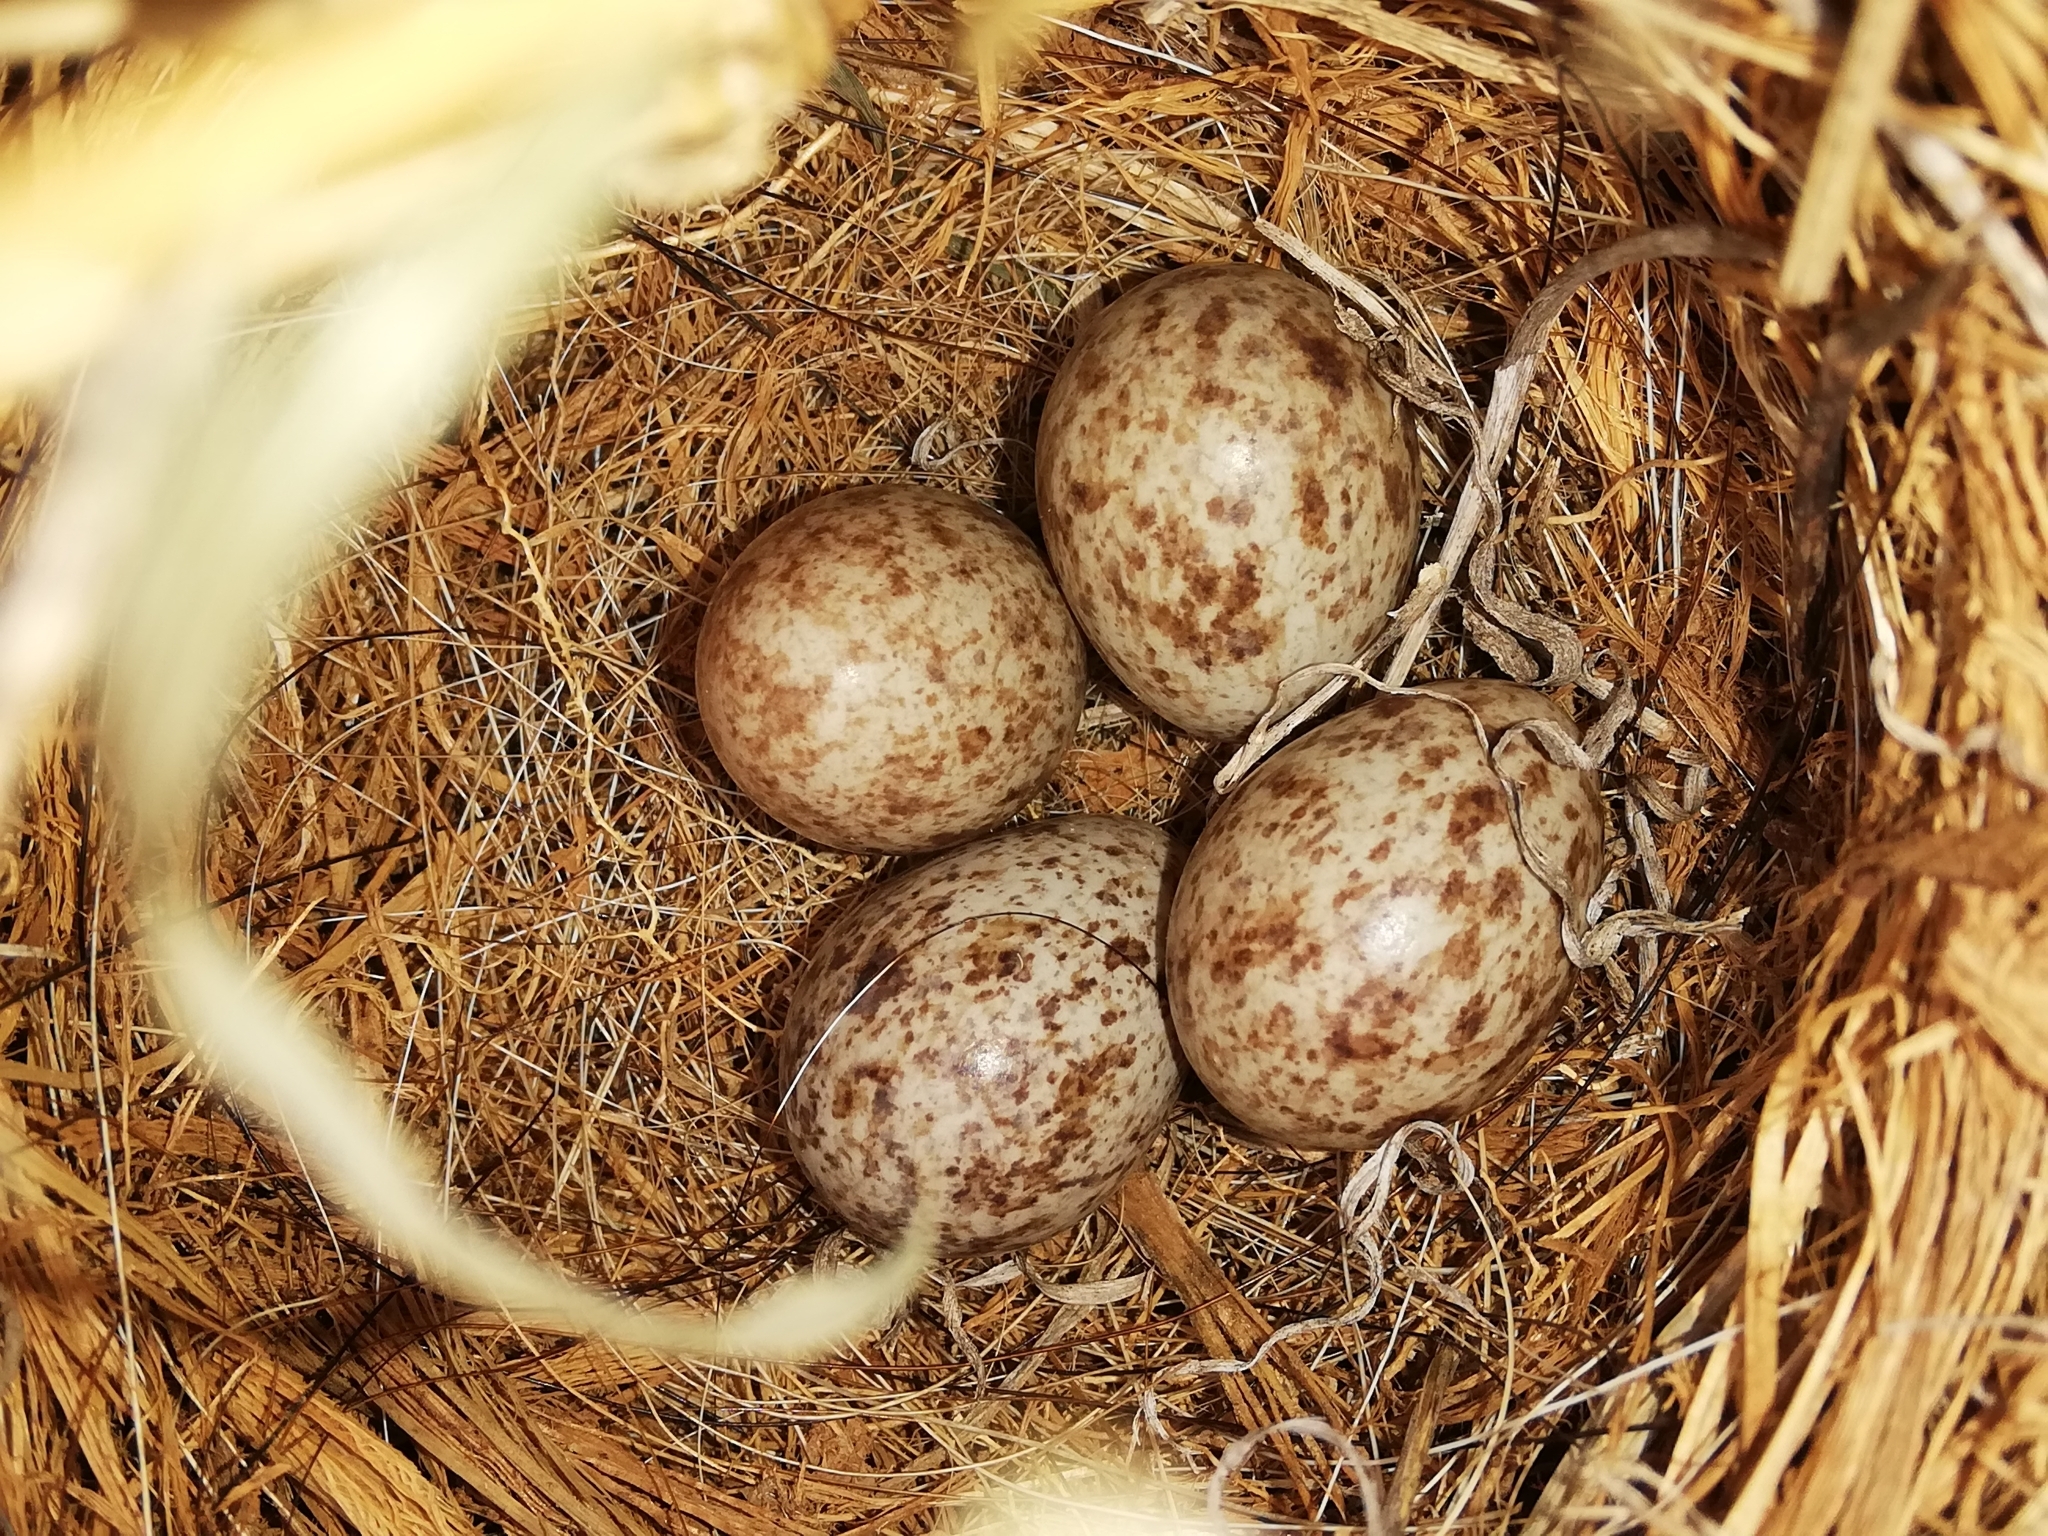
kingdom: Animalia
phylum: Chordata
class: Aves
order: Passeriformes
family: Motacillidae
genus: Anthus
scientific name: Anthus cinnamomeus
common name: African pipit
